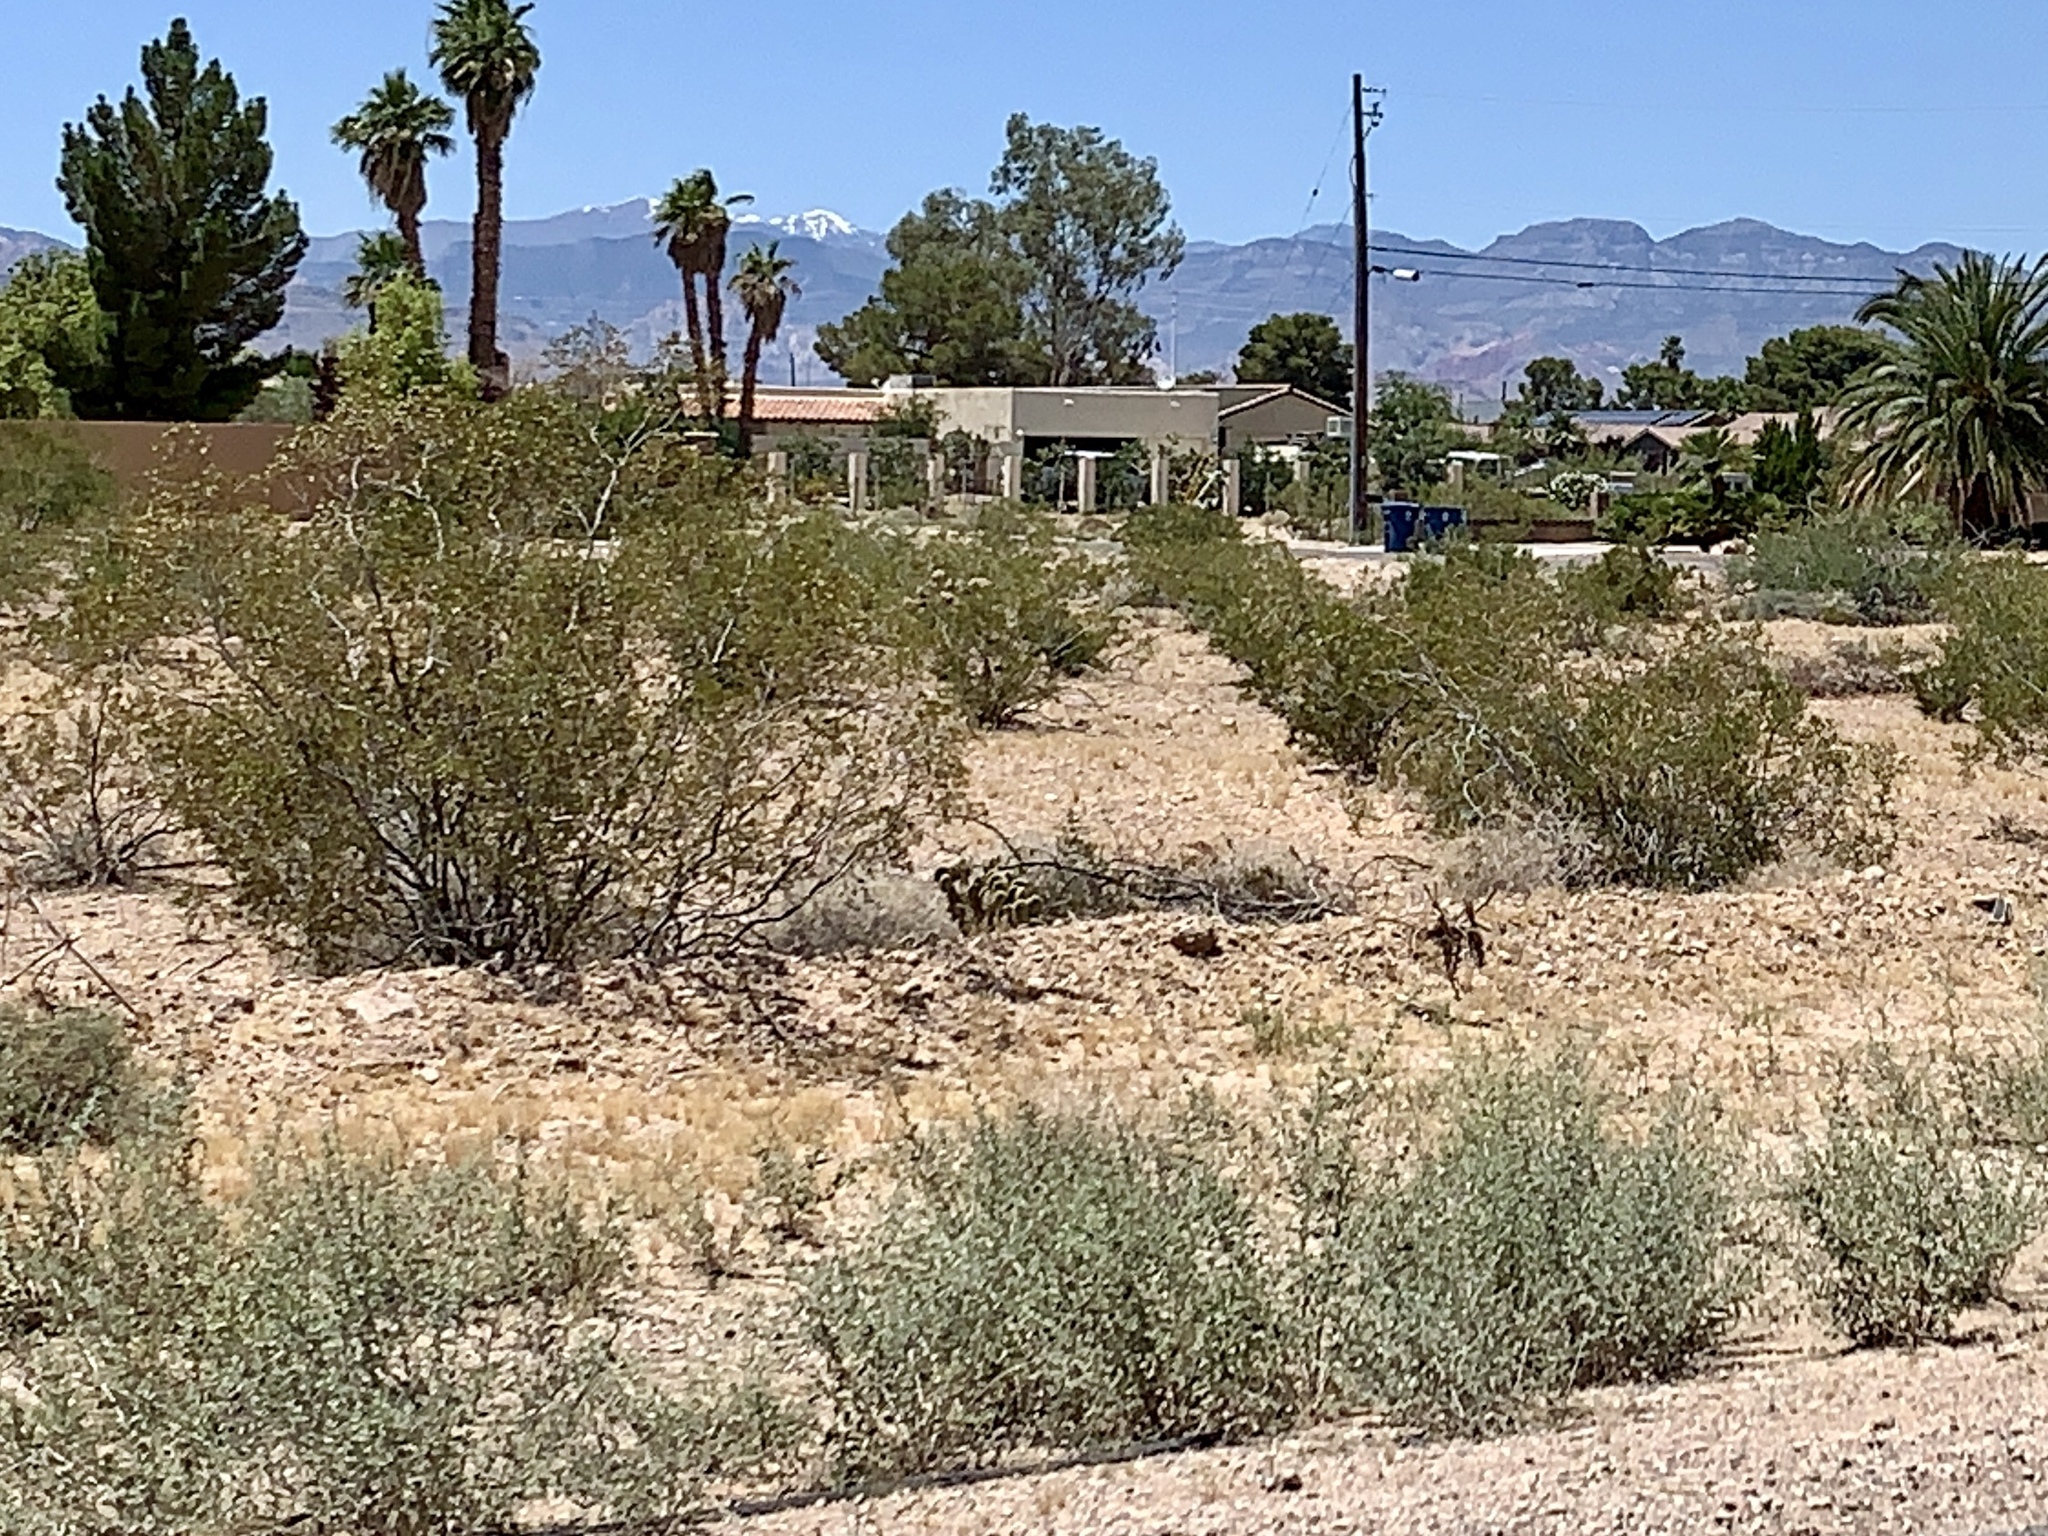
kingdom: Plantae
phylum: Tracheophyta
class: Magnoliopsida
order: Zygophyllales
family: Zygophyllaceae
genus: Larrea
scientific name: Larrea tridentata
